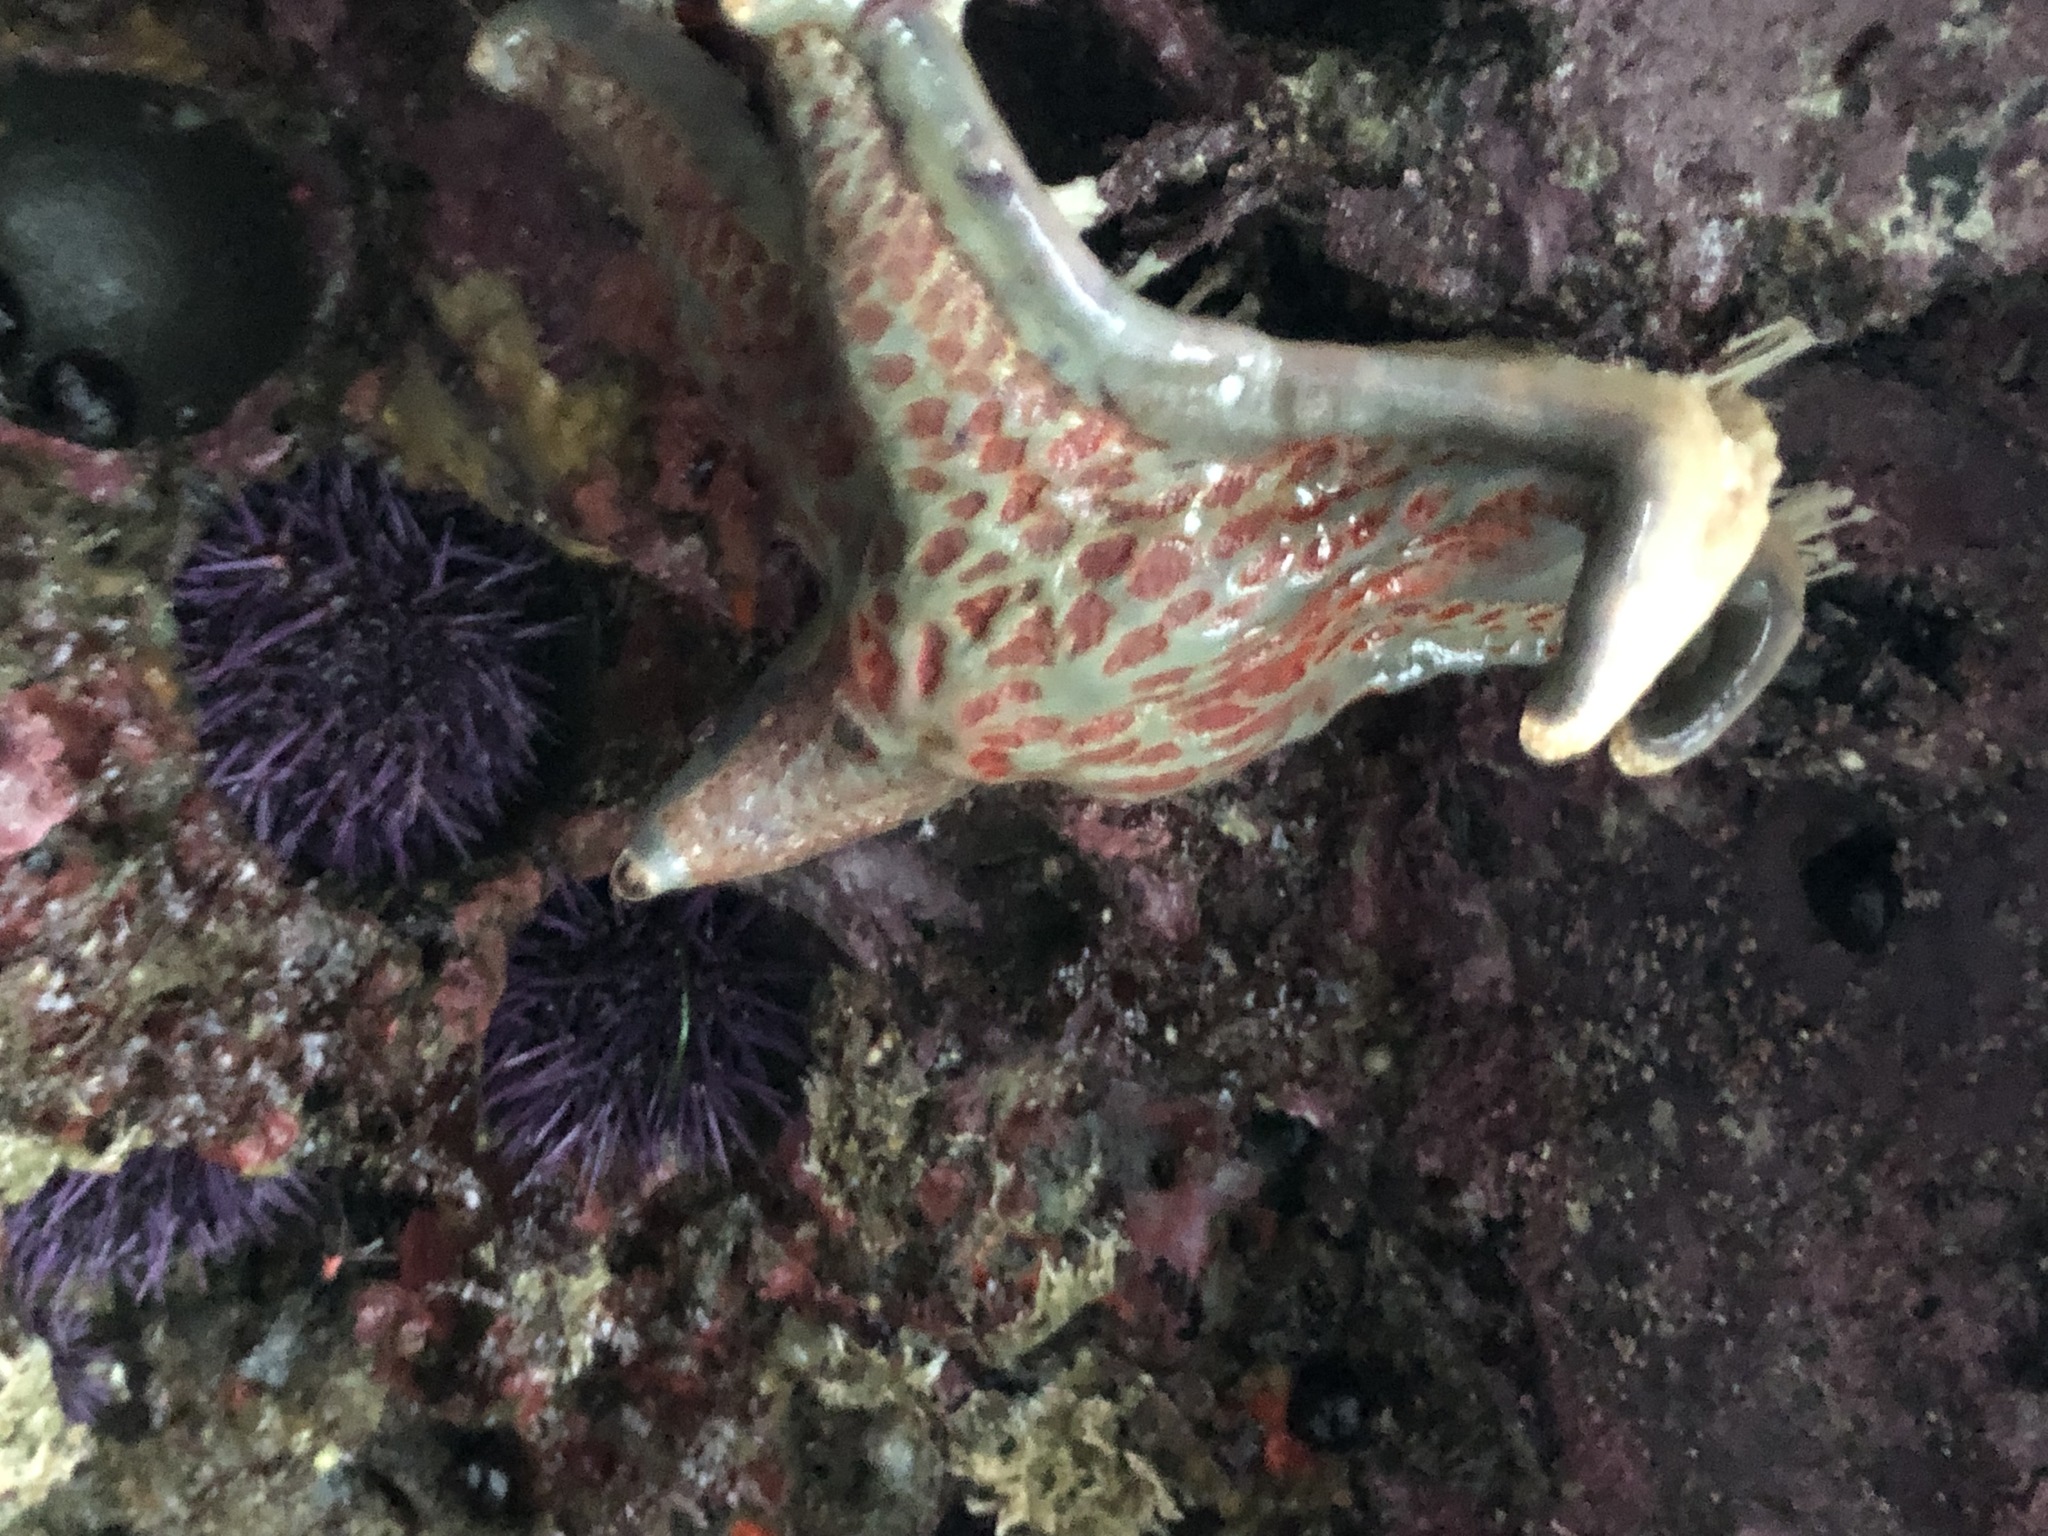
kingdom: Animalia
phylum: Echinodermata
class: Asteroidea
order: Valvatida
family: Asteropseidae
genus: Dermasterias
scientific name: Dermasterias imbricata
